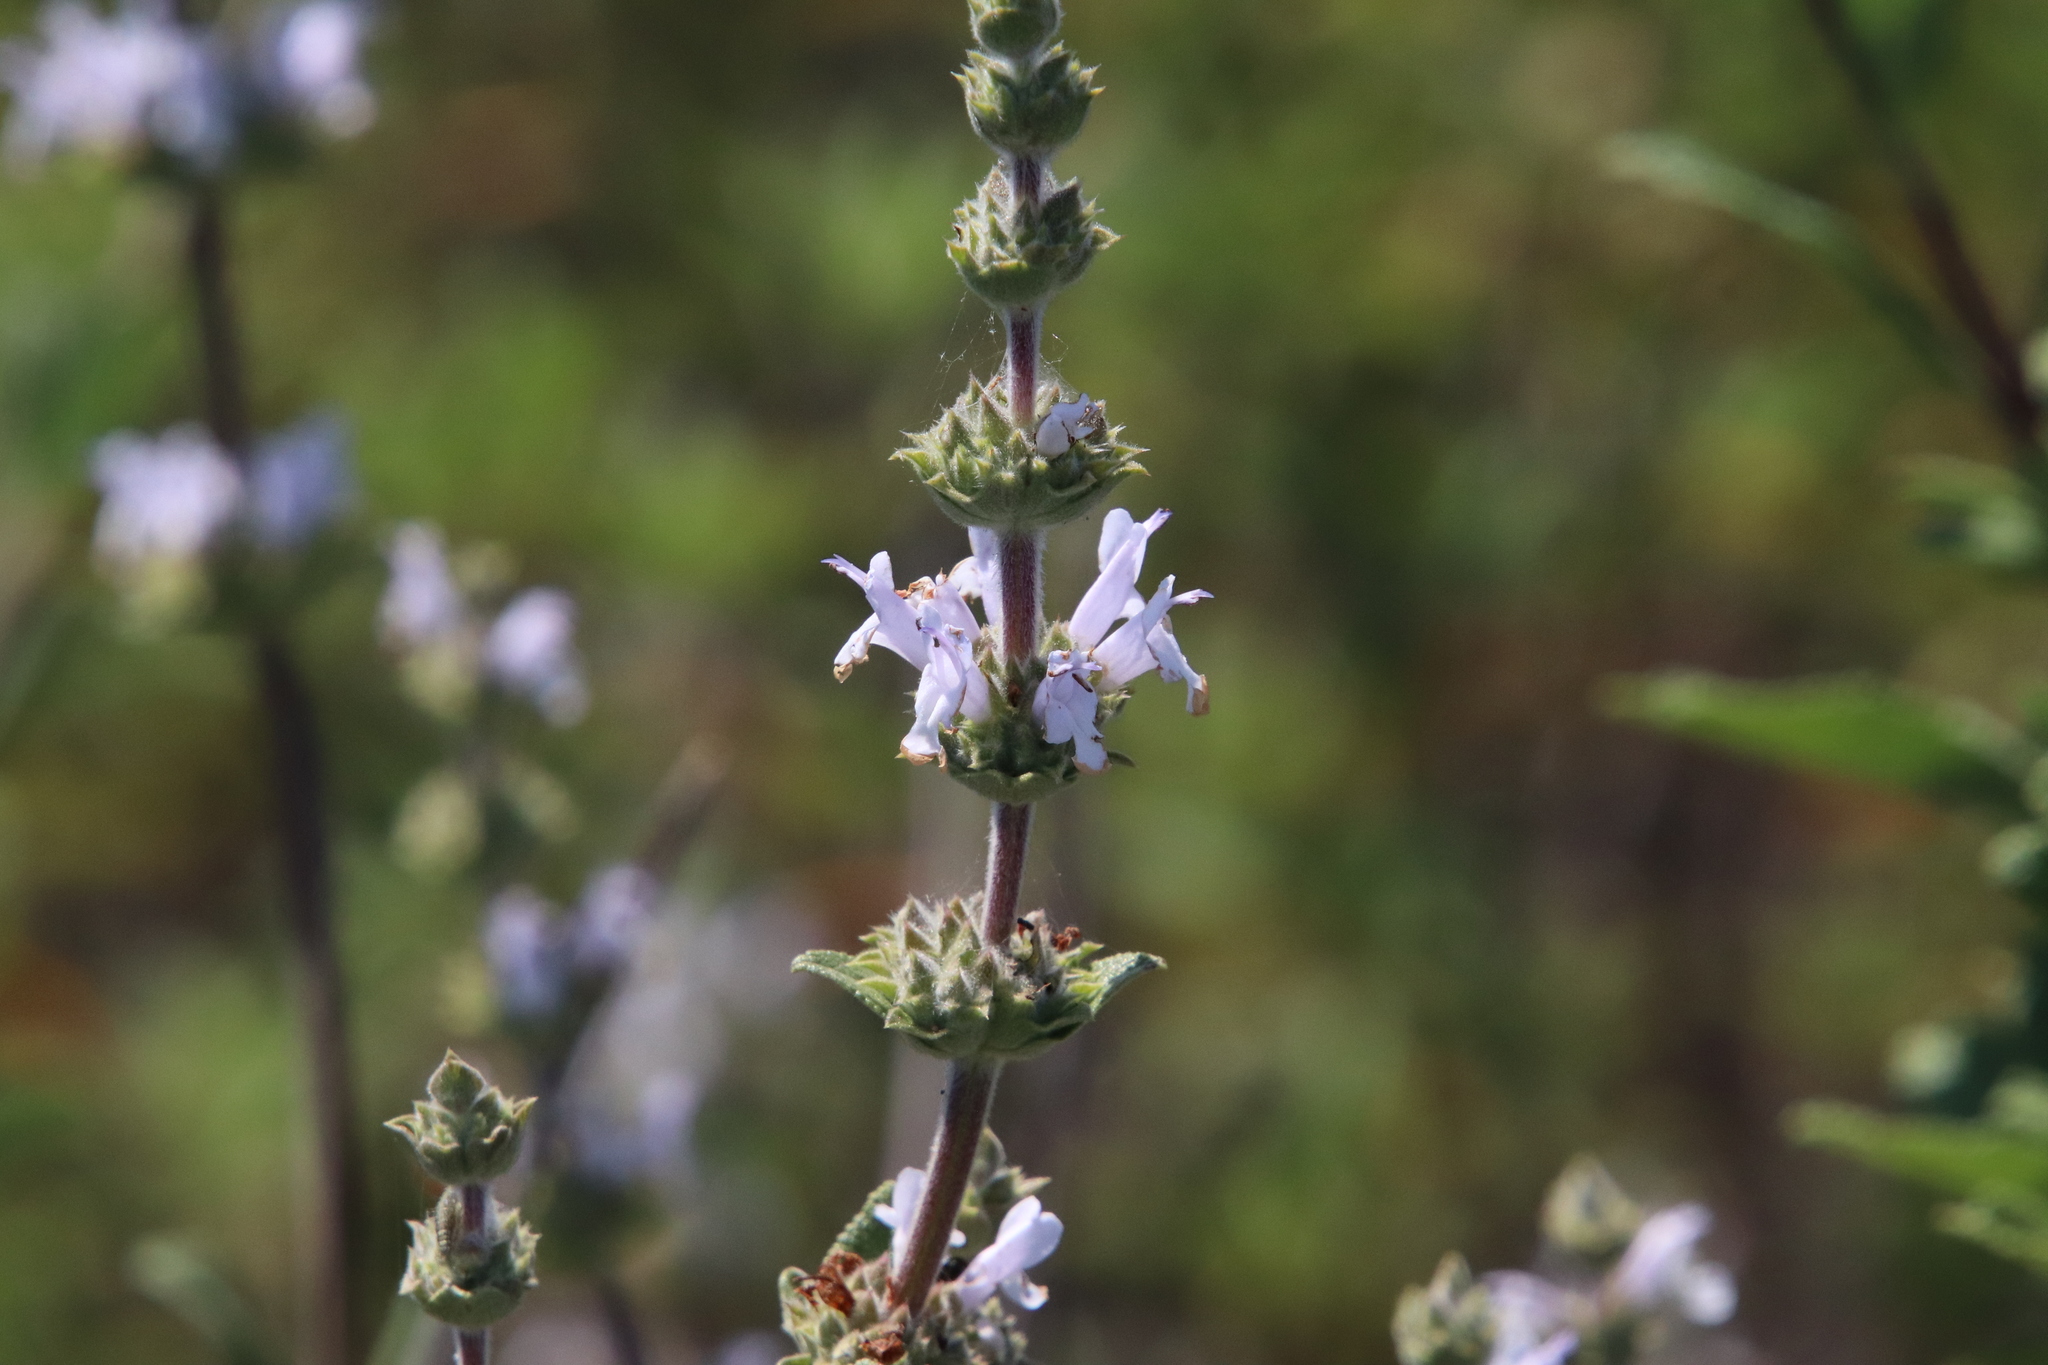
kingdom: Plantae
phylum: Tracheophyta
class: Magnoliopsida
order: Lamiales
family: Lamiaceae
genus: Salvia
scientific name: Salvia mellifera
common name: Black sage
